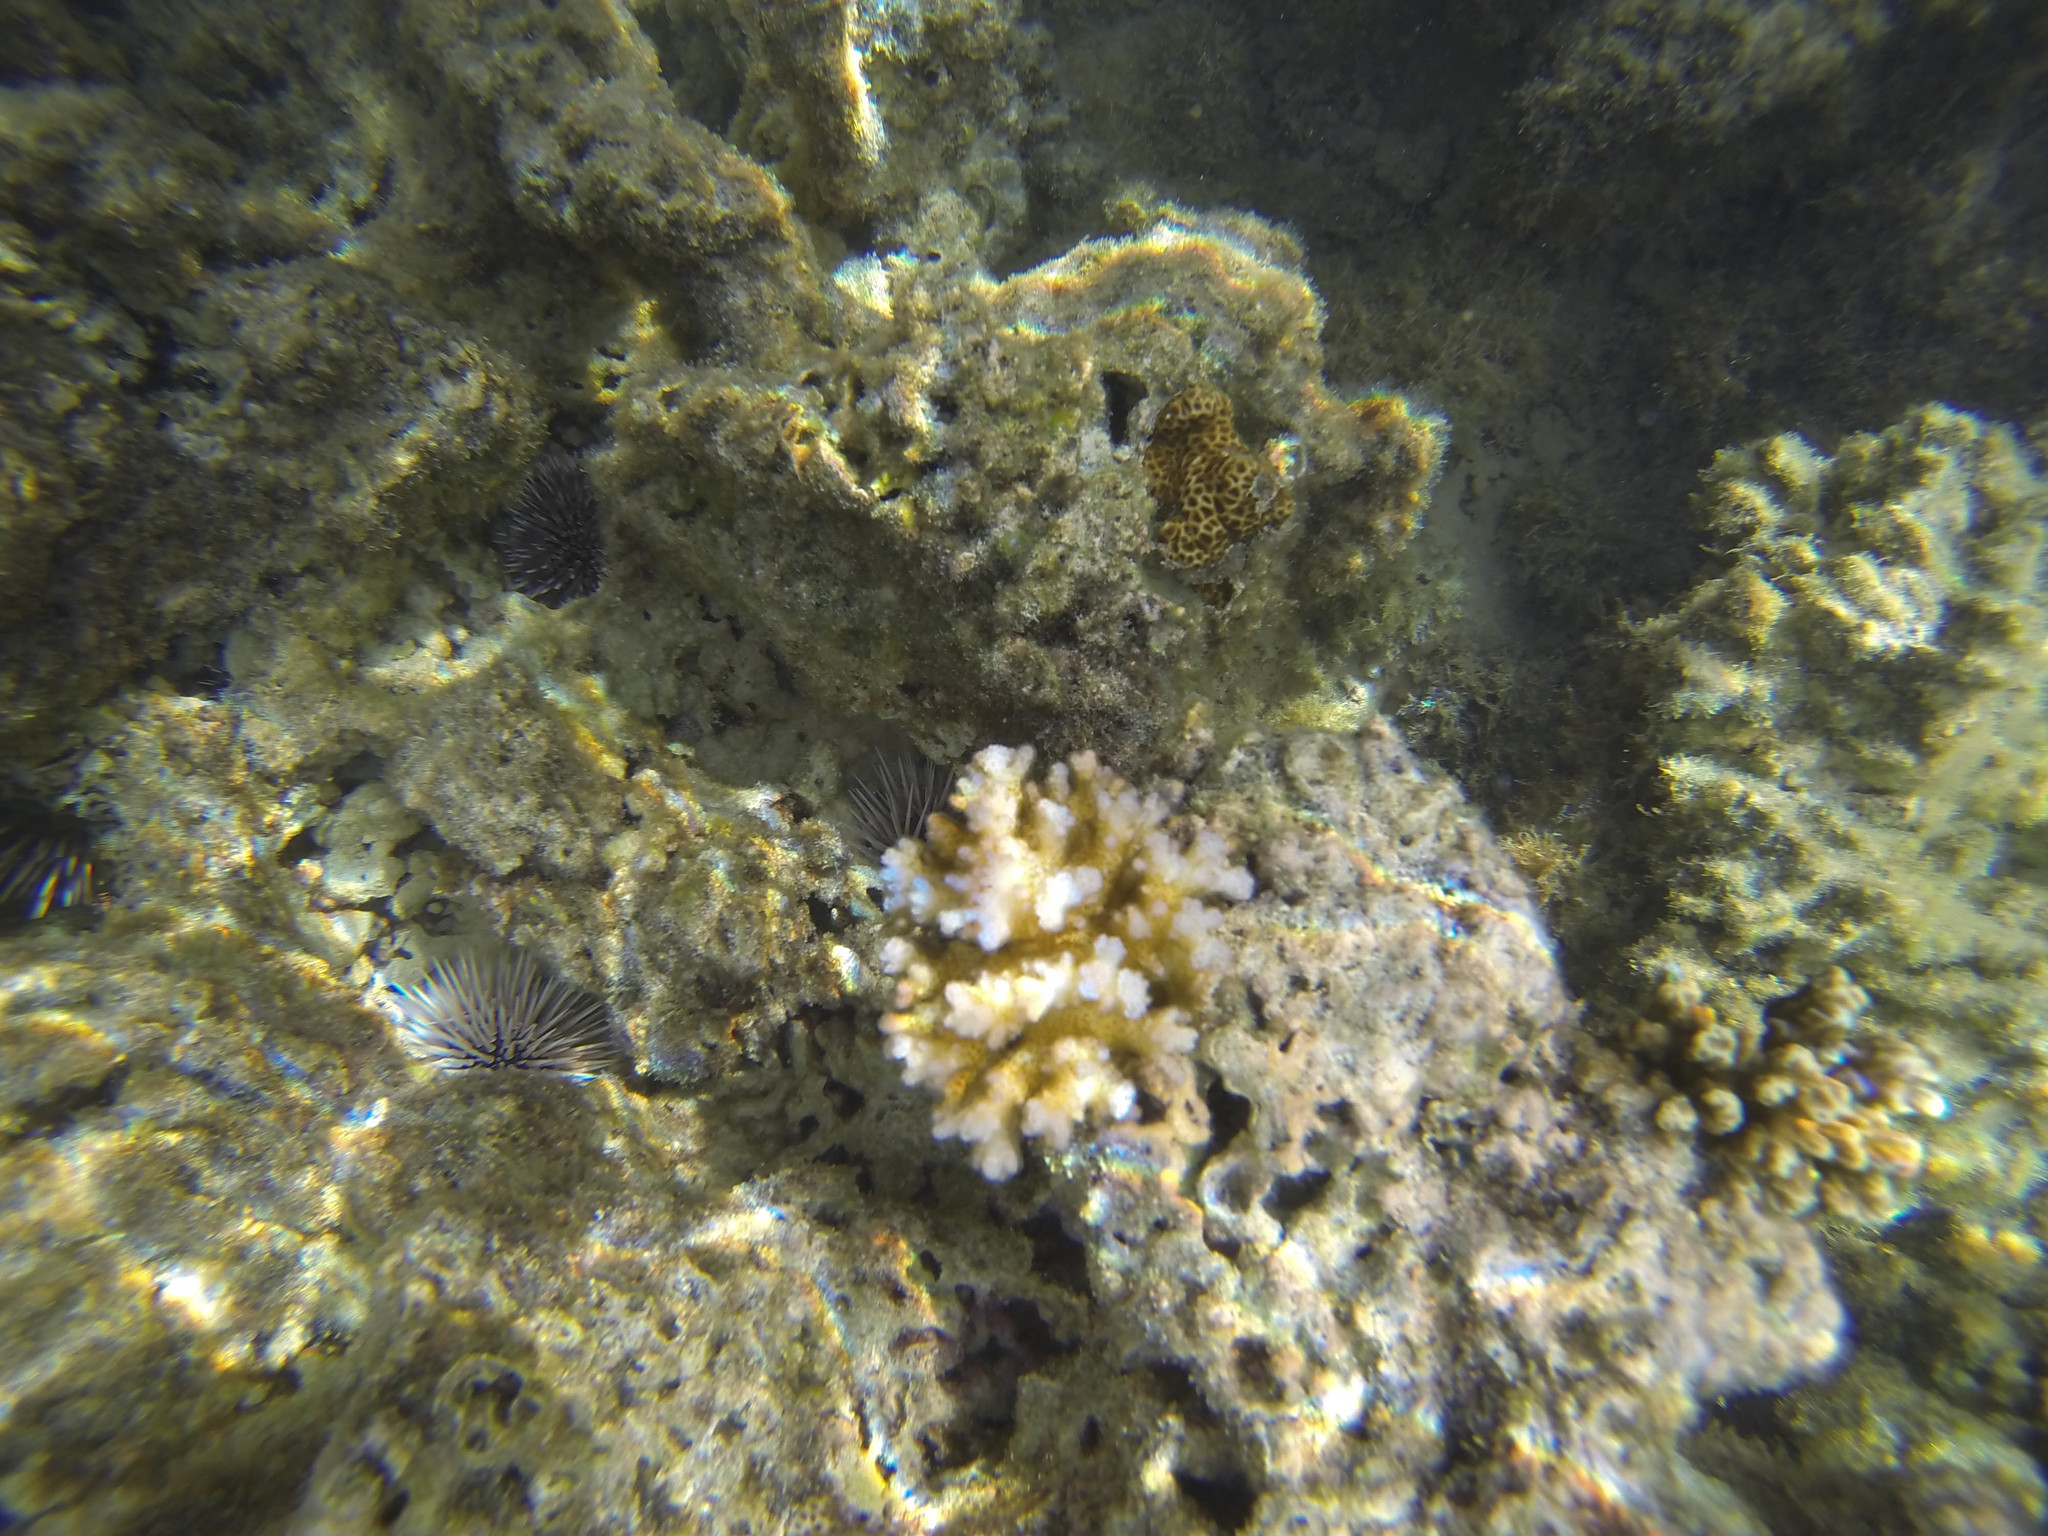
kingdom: Animalia
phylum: Echinodermata
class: Echinoidea
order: Camarodonta
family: Echinometridae
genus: Echinometra
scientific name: Echinometra mathaei
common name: Rock-boring urchin
